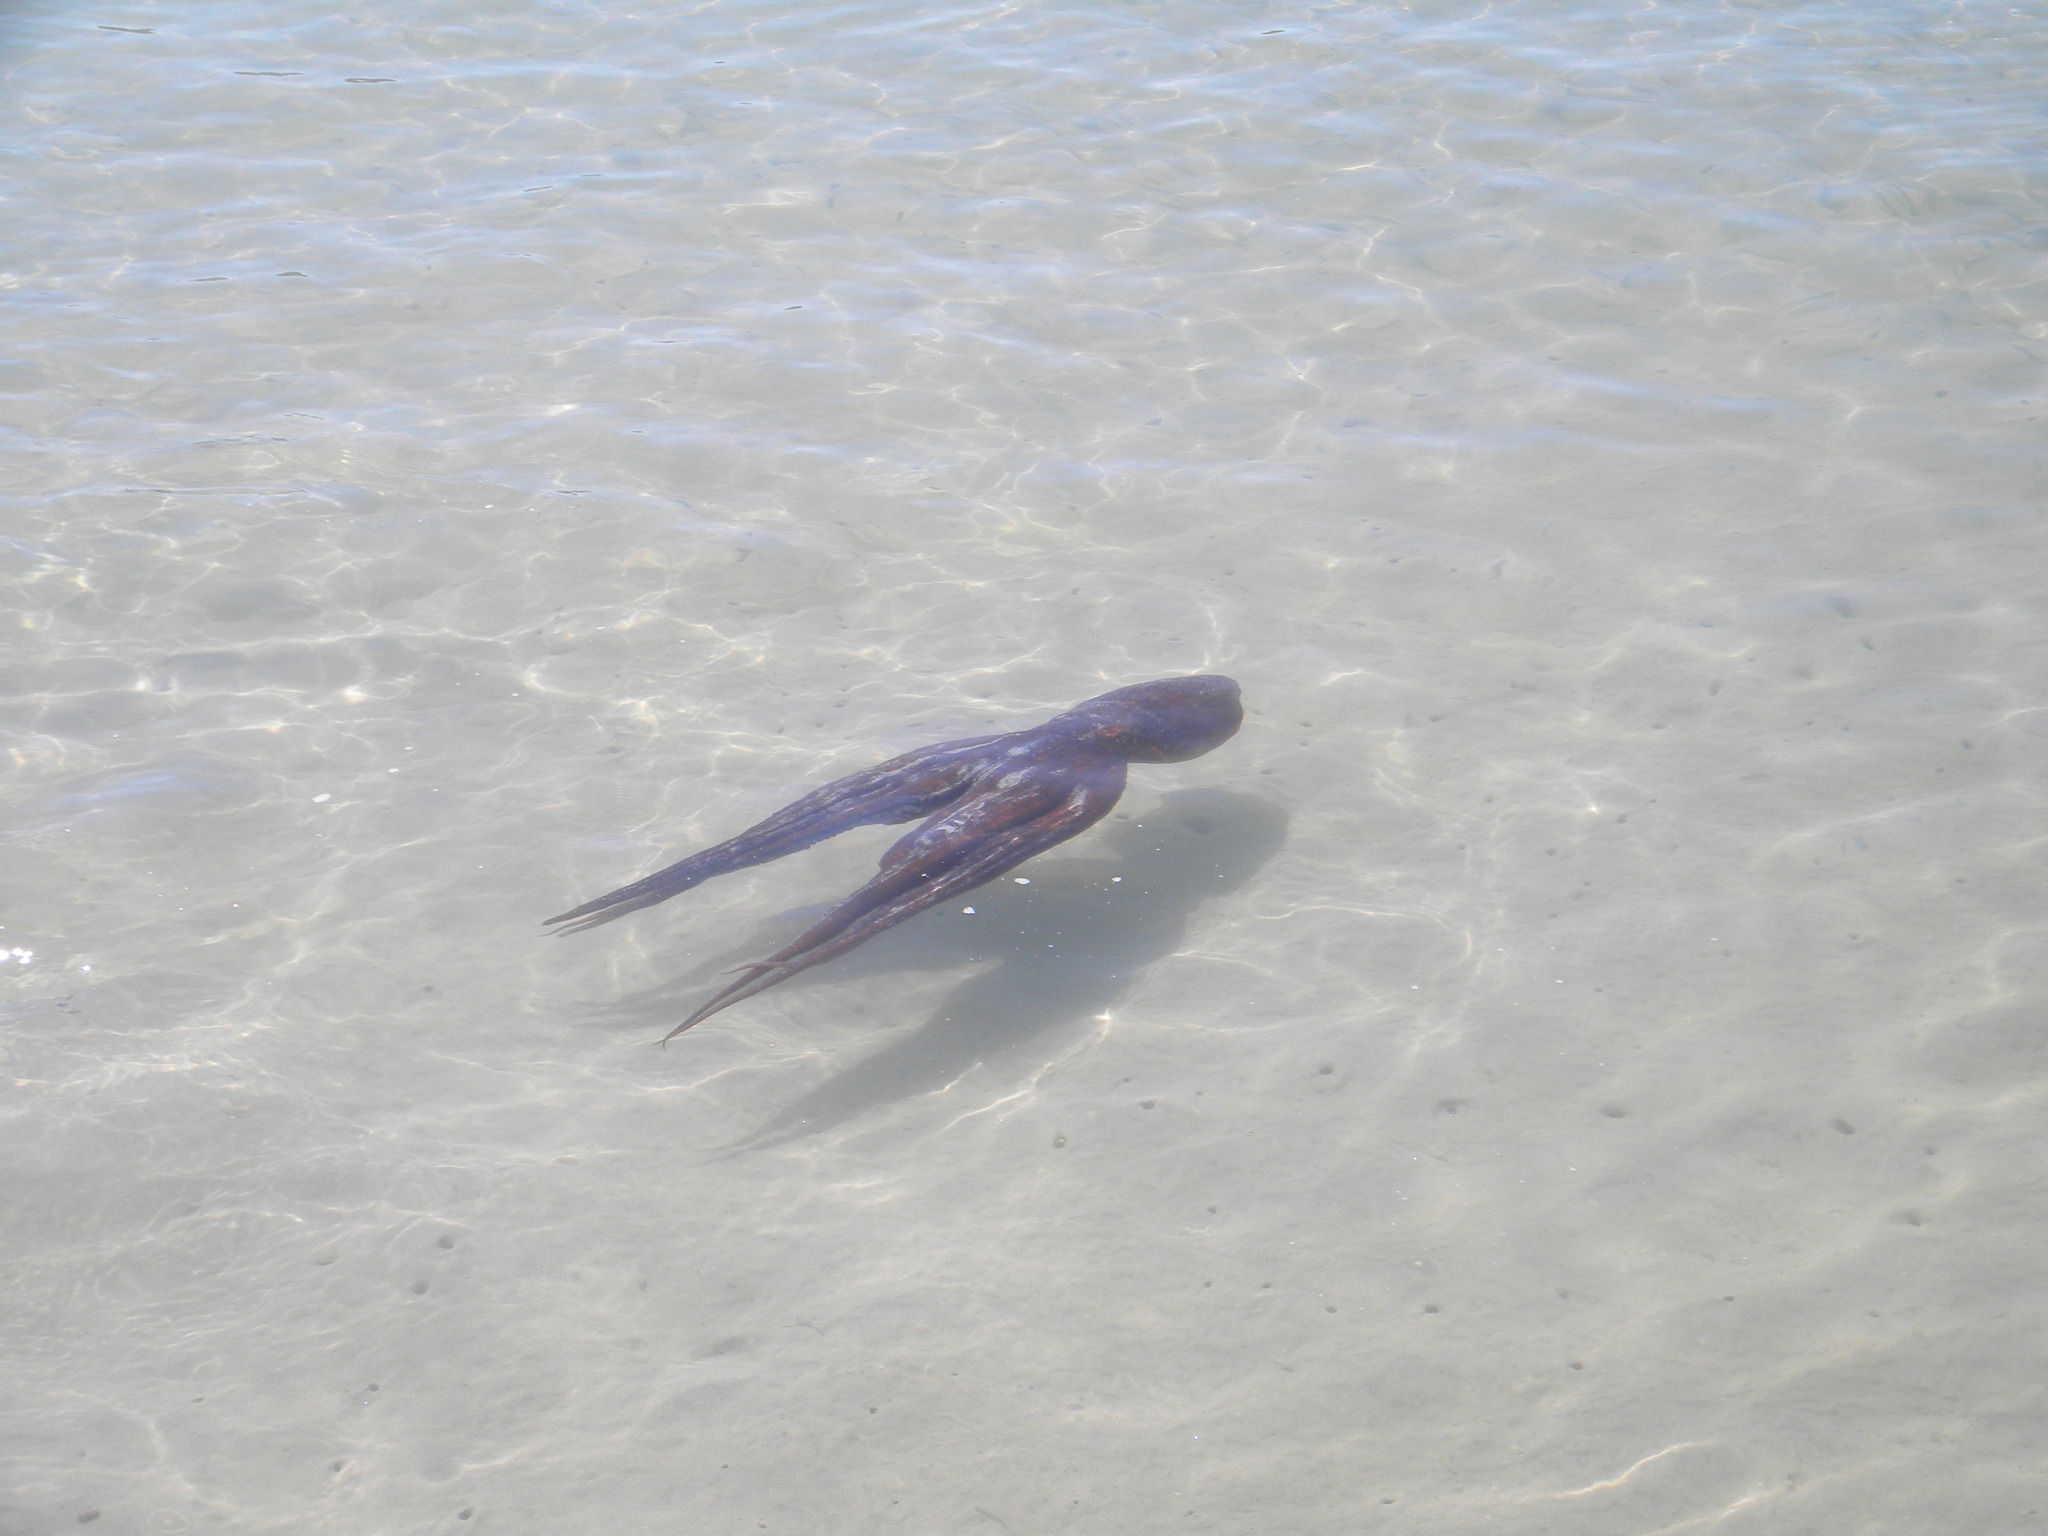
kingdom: Animalia
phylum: Mollusca
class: Cephalopoda
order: Octopoda
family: Octopodidae
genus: Octopus
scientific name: Octopus vulgaris
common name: Common octopus
